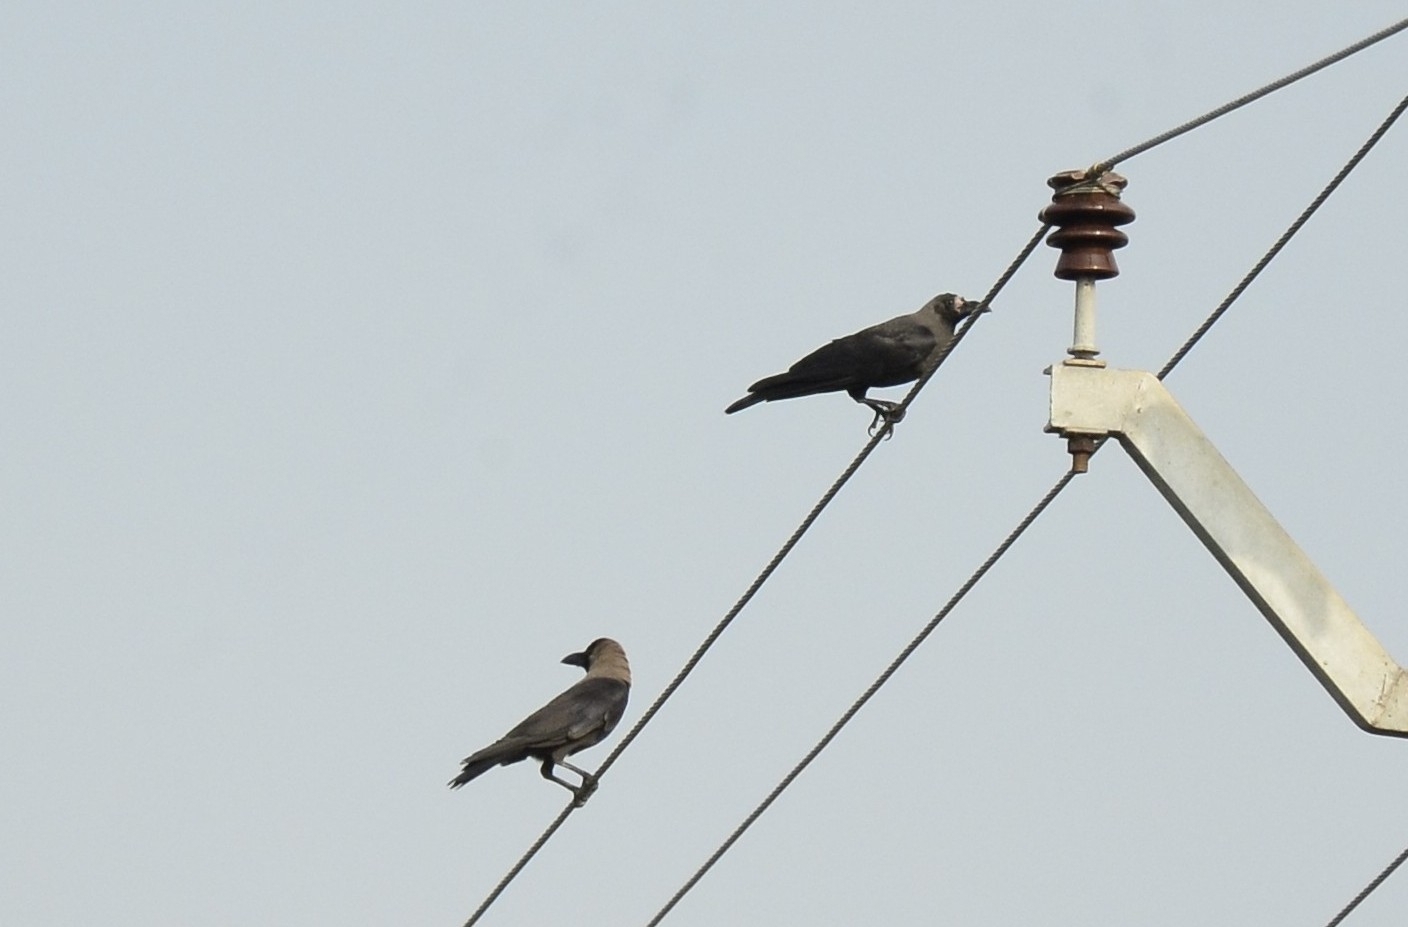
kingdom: Animalia
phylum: Chordata
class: Aves
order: Passeriformes
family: Corvidae
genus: Corvus
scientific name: Corvus splendens
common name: House crow
